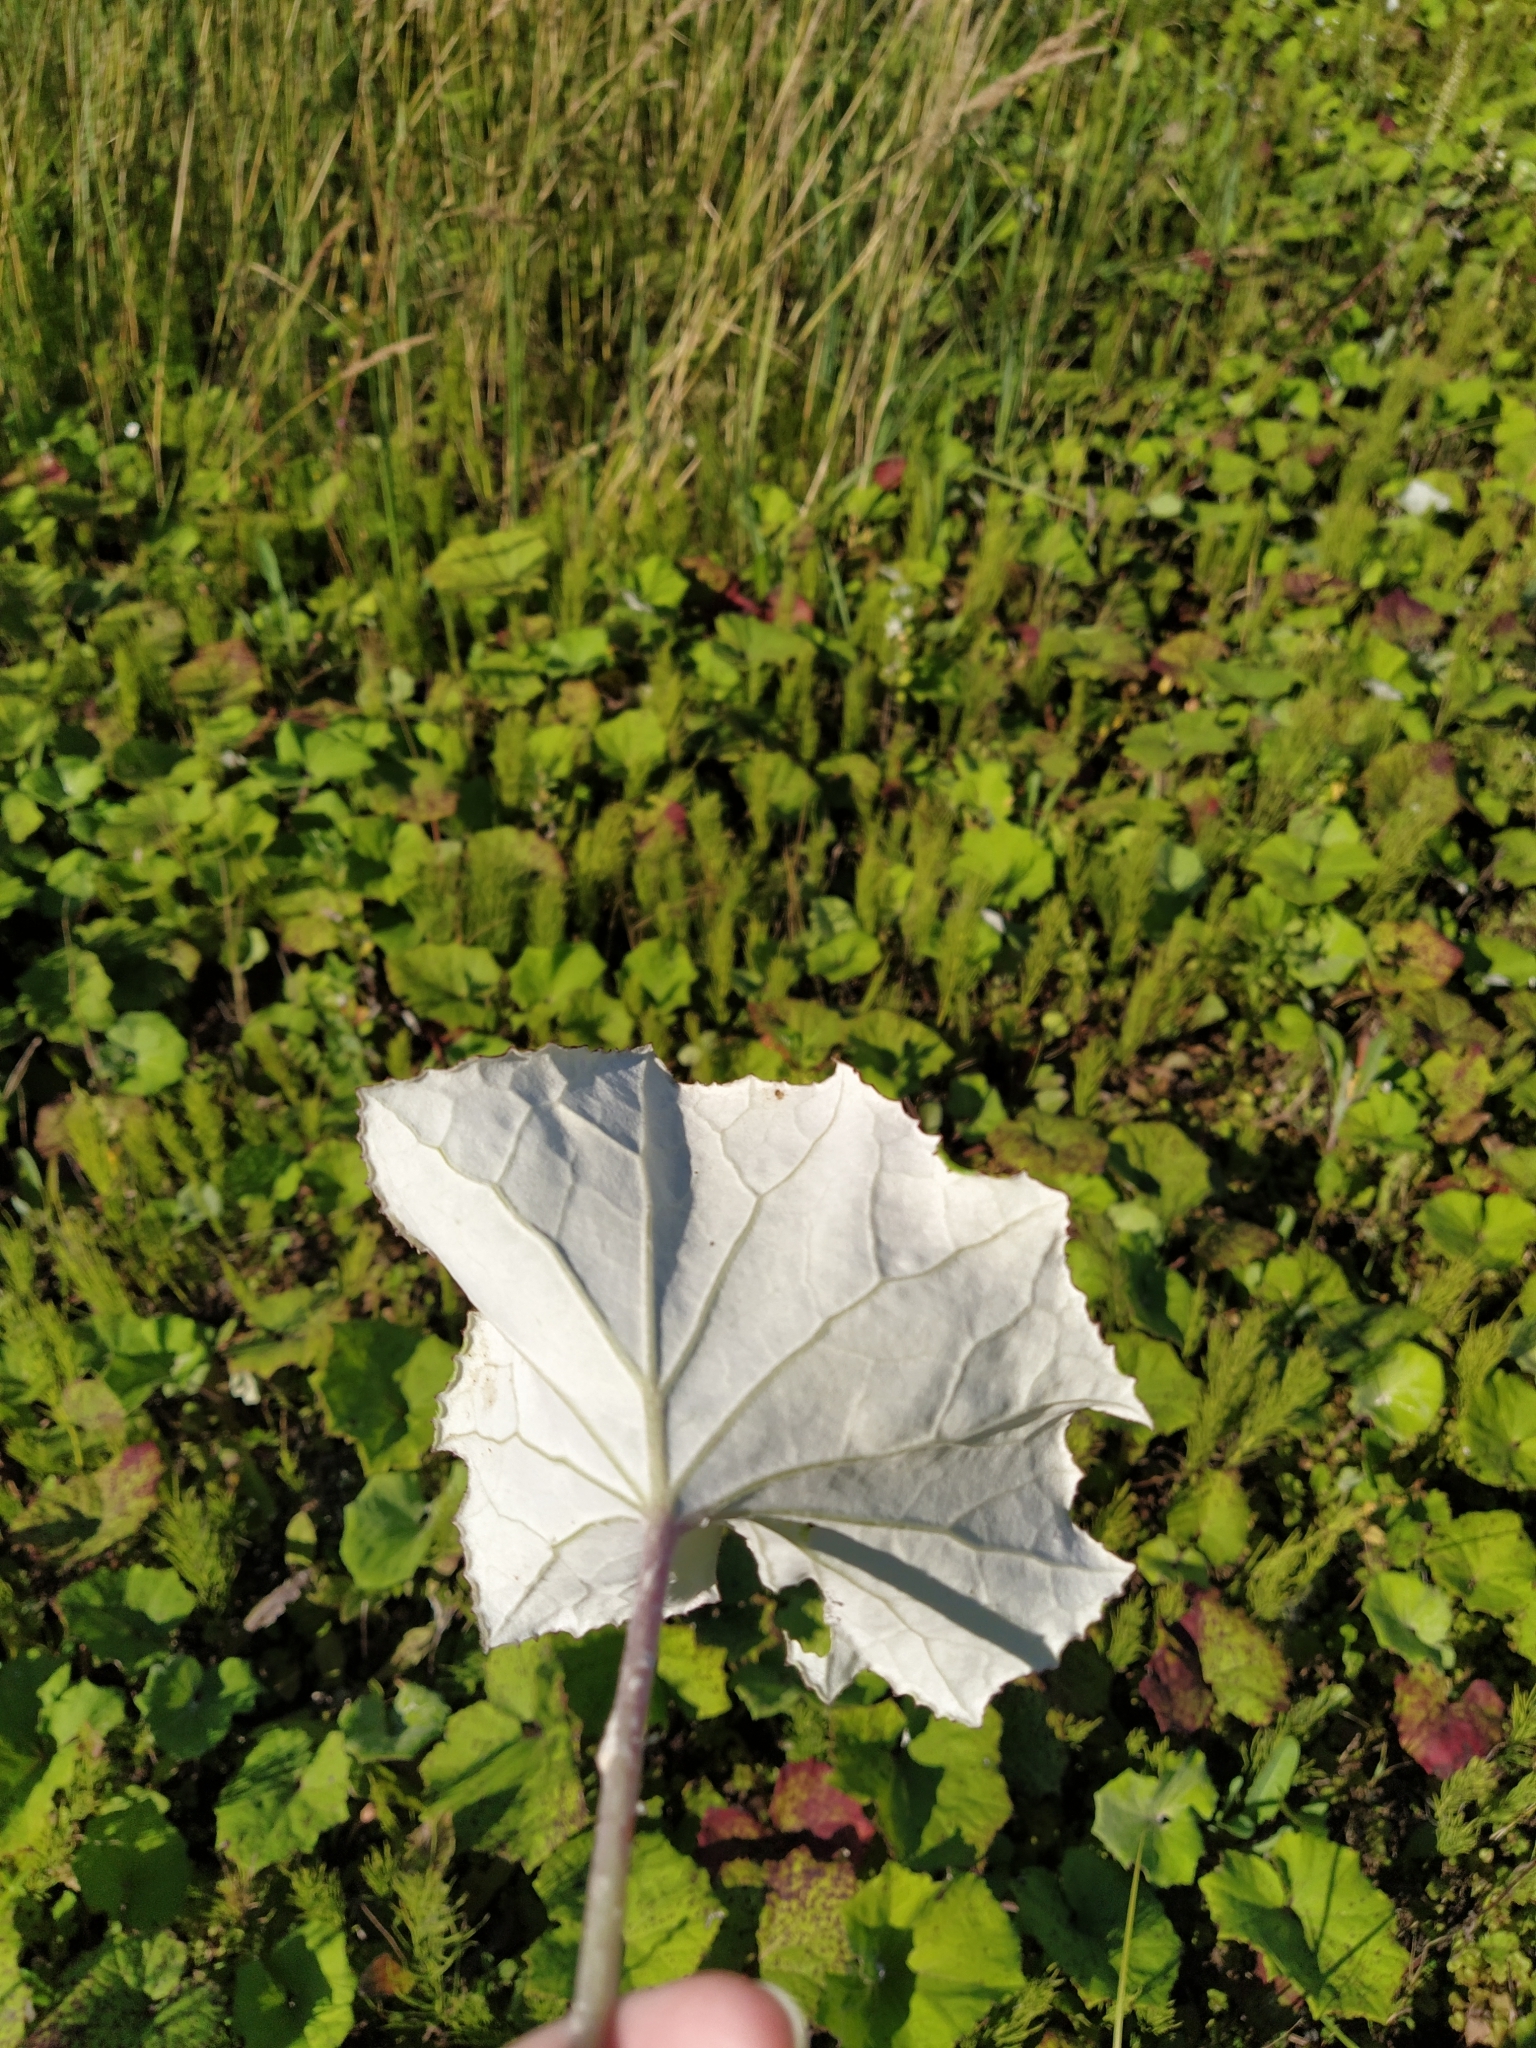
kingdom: Plantae
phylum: Tracheophyta
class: Magnoliopsida
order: Asterales
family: Asteraceae
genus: Tussilago
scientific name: Tussilago farfara
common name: Coltsfoot
